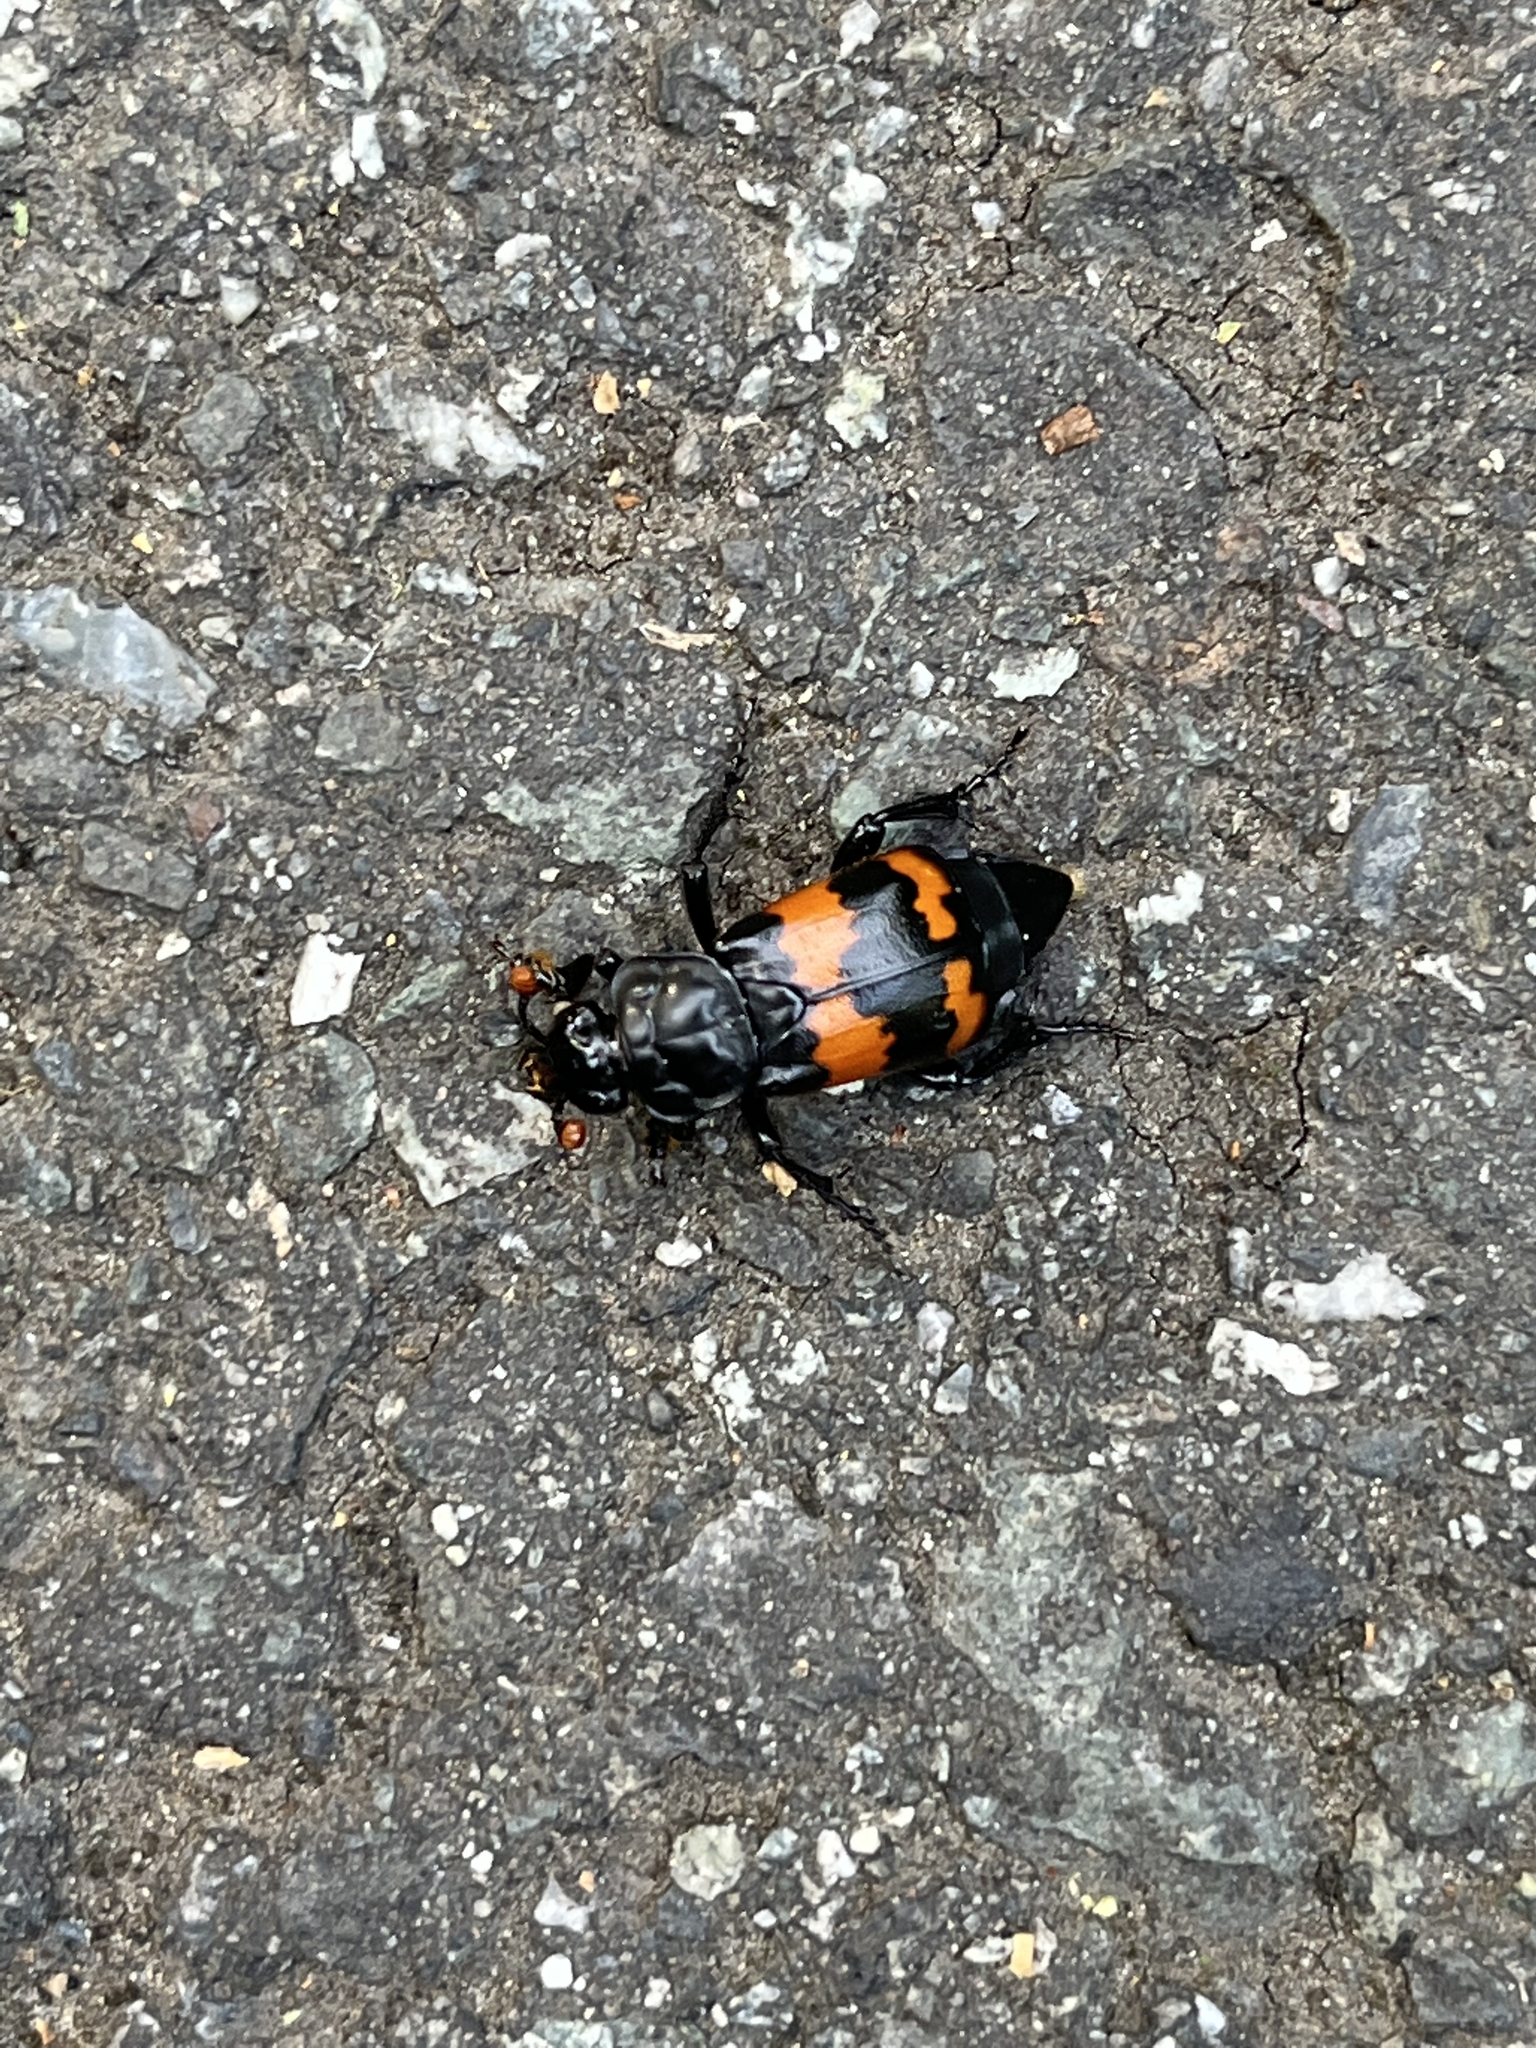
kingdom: Animalia
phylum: Arthropoda
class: Insecta
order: Coleoptera
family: Staphylinidae
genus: Nicrophorus
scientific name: Nicrophorus investigator
